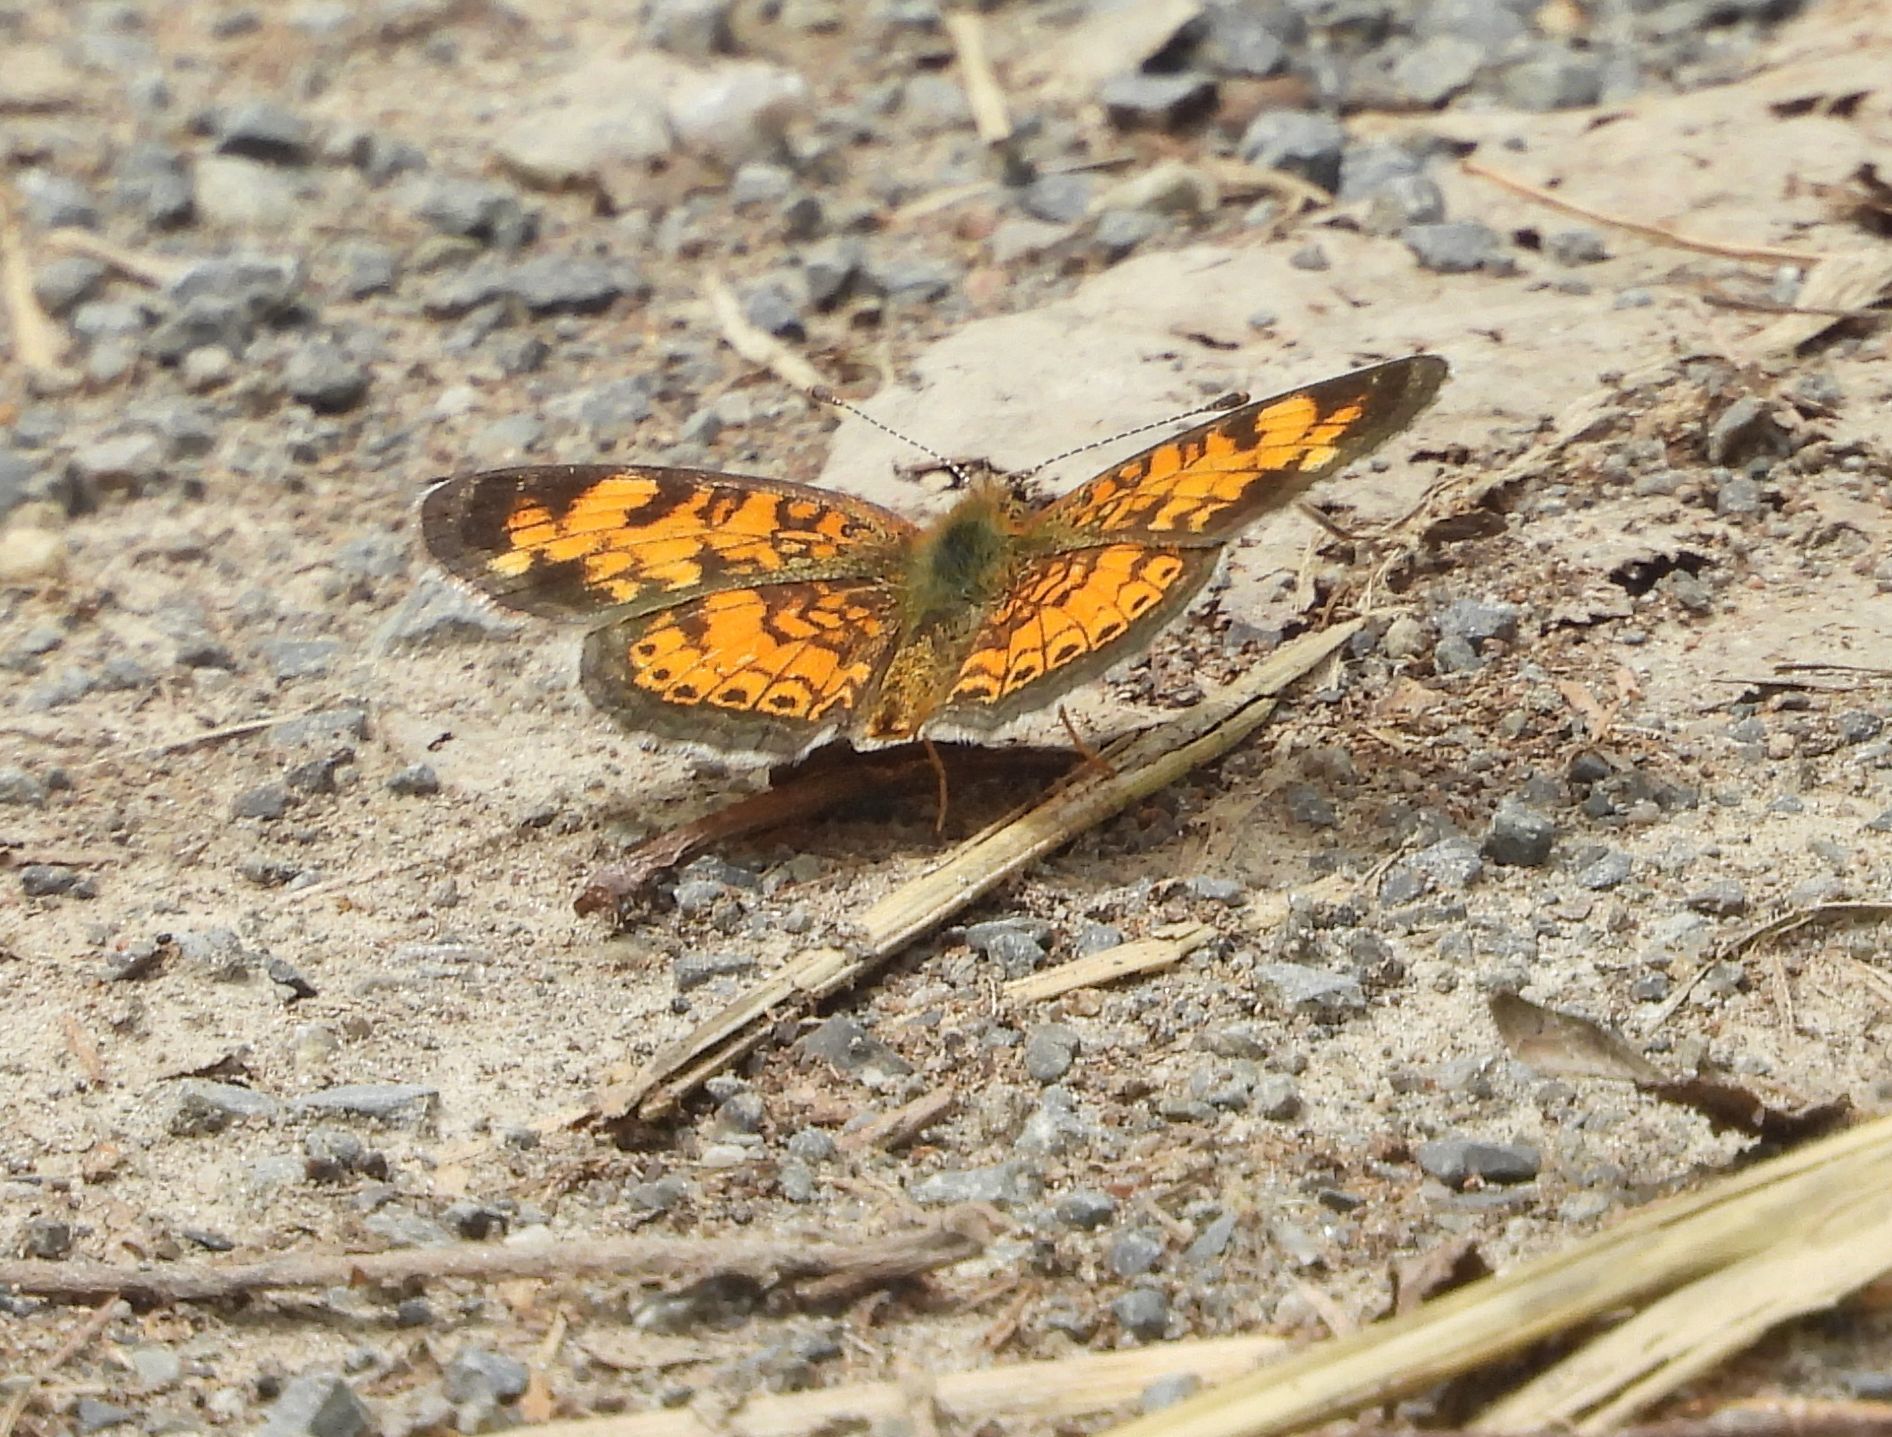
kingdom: Animalia
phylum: Arthropoda
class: Insecta
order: Lepidoptera
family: Nymphalidae
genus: Phyciodes
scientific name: Phyciodes tharos
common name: Pearl crescent
